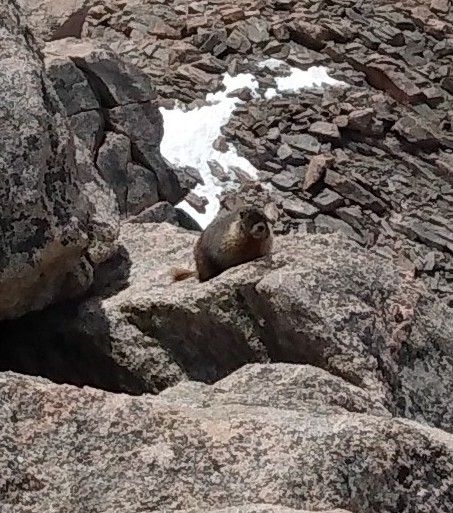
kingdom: Animalia
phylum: Chordata
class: Mammalia
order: Rodentia
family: Sciuridae
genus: Marmota
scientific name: Marmota flaviventris
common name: Yellow-bellied marmot
